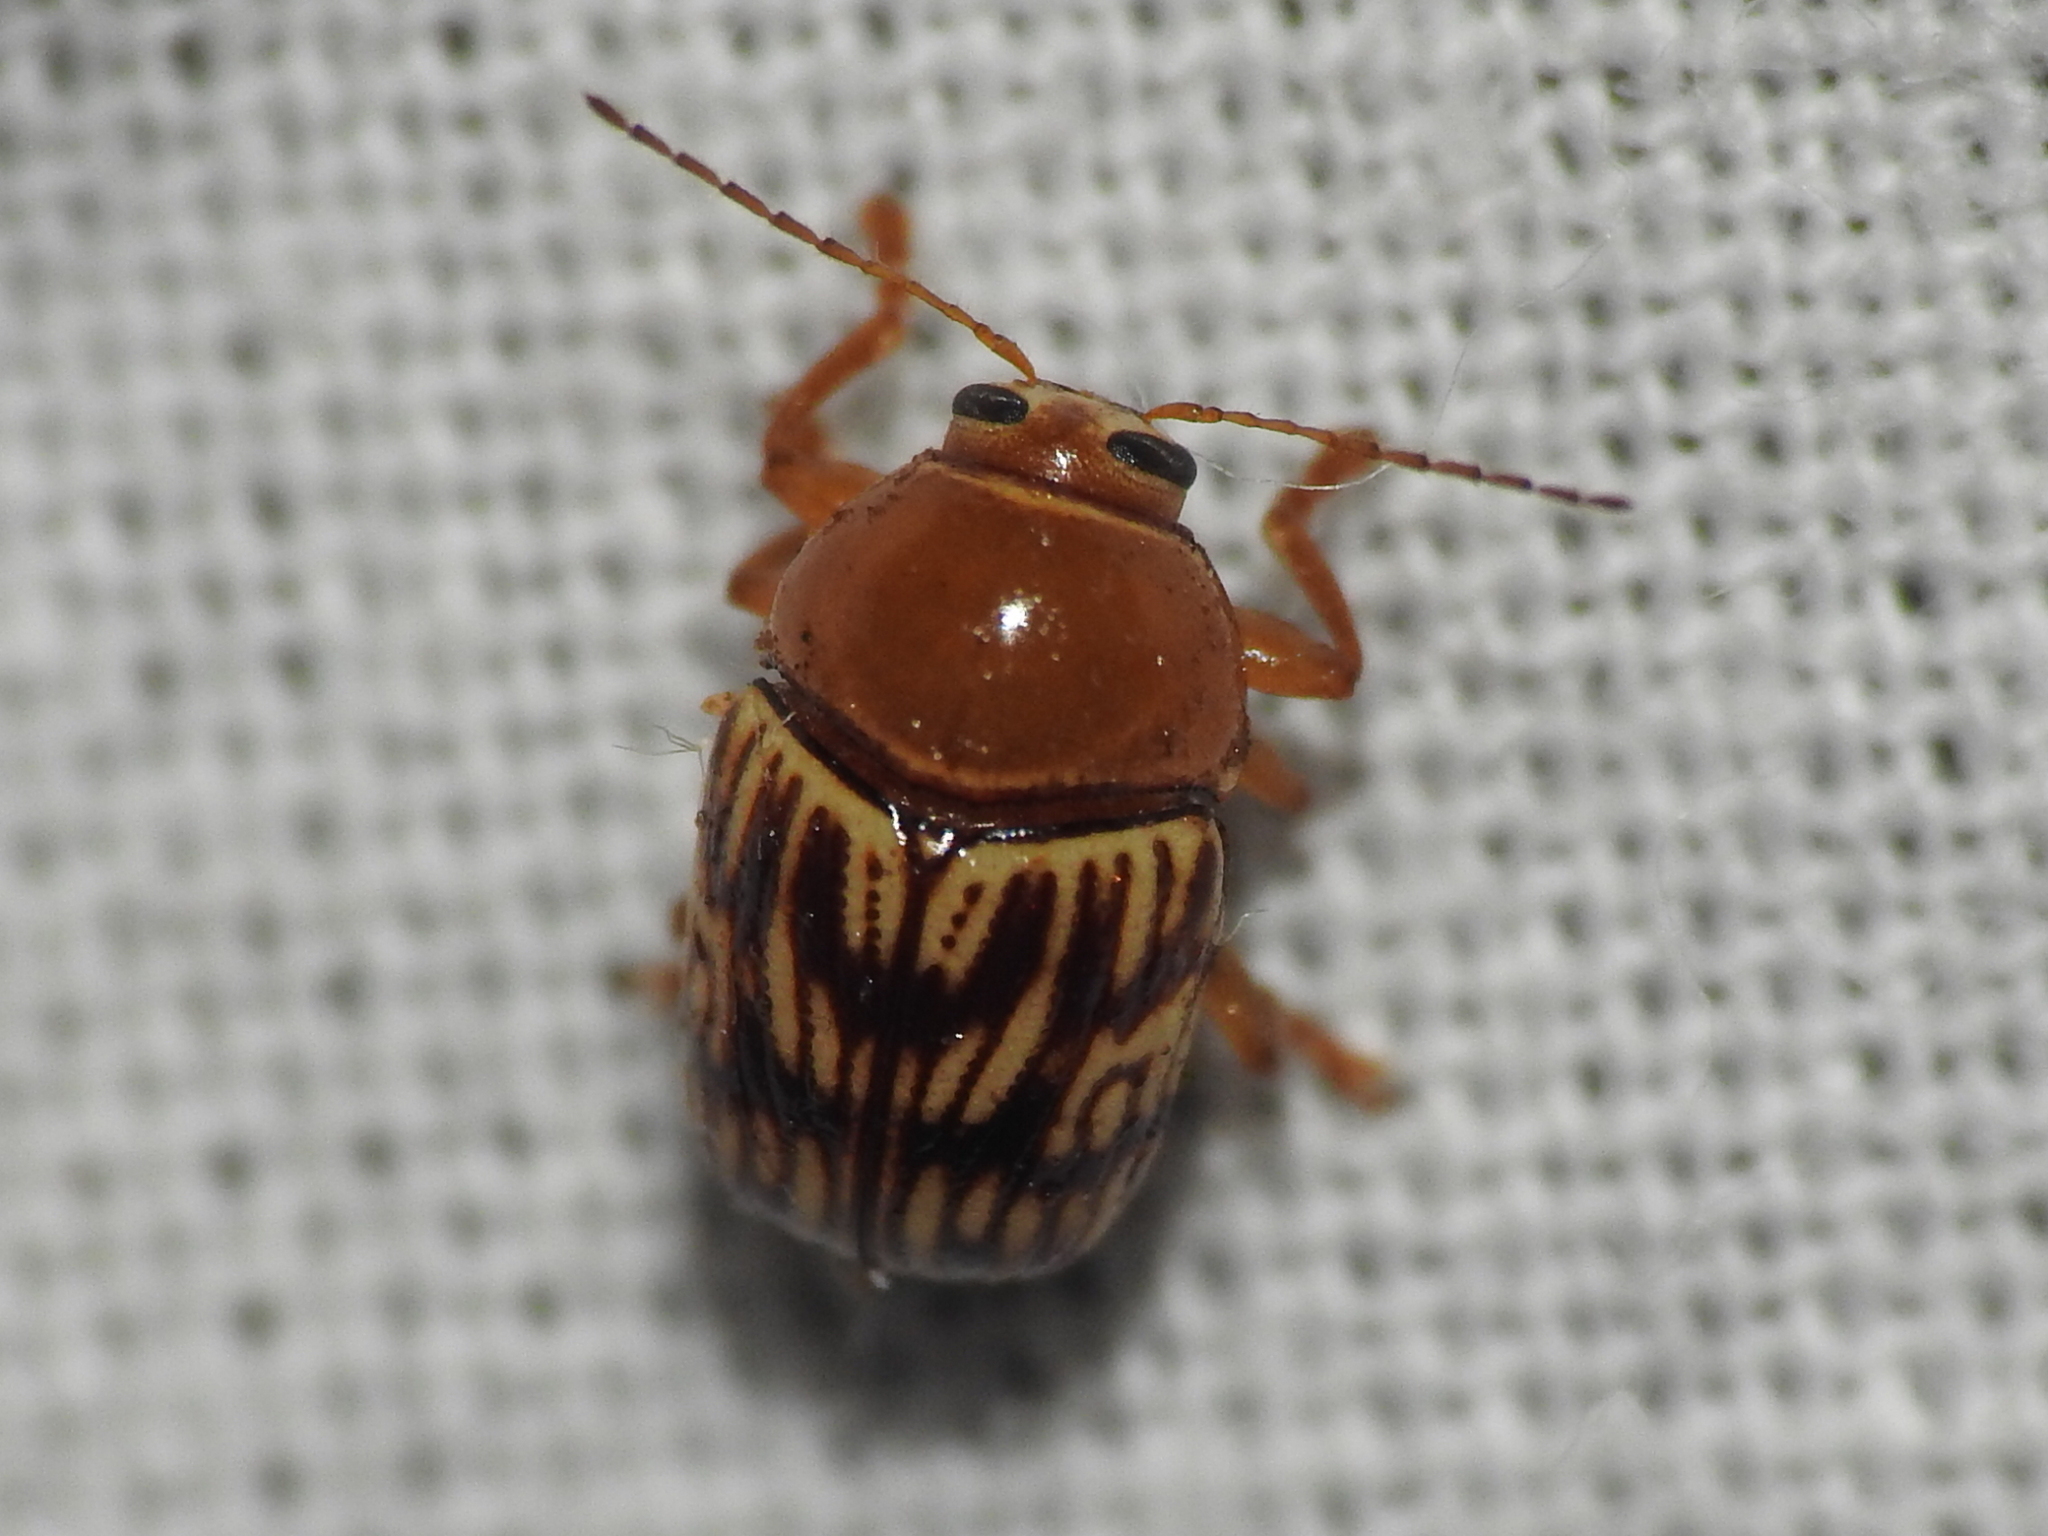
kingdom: Animalia
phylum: Arthropoda
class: Insecta
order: Coleoptera
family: Chrysomelidae
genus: Cryptocephalus
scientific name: Cryptocephalus fulguratus
